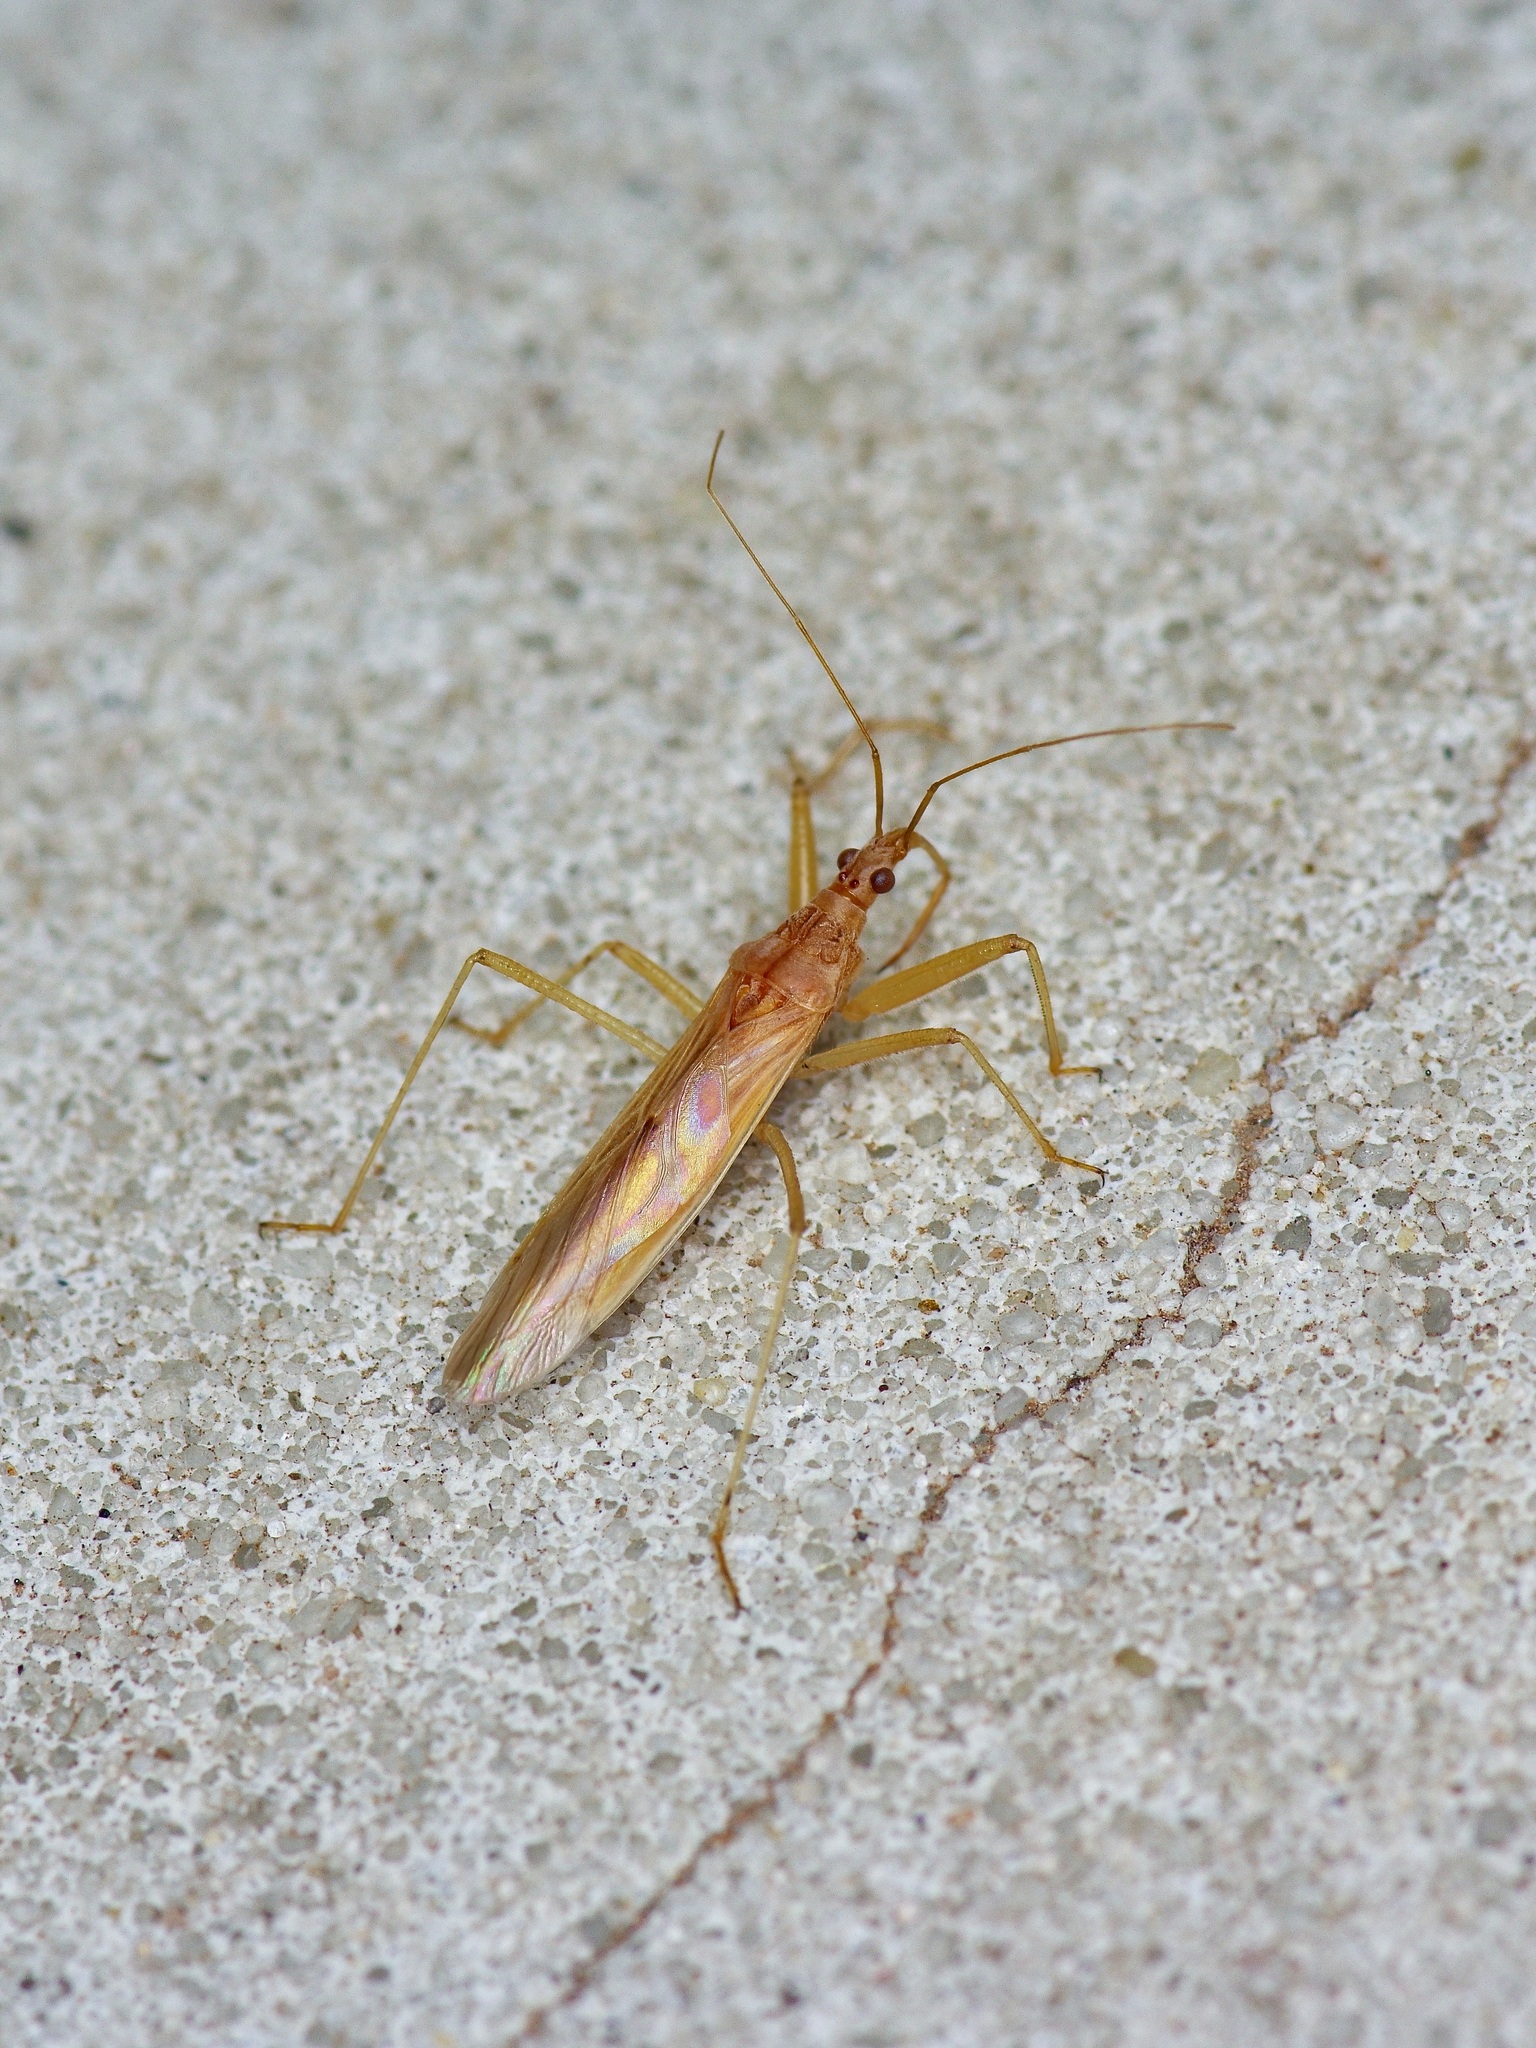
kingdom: Animalia
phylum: Arthropoda
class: Insecta
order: Hemiptera
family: Nabidae
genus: Nabis
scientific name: Nabis capsiformis
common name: Pale damsel bug
